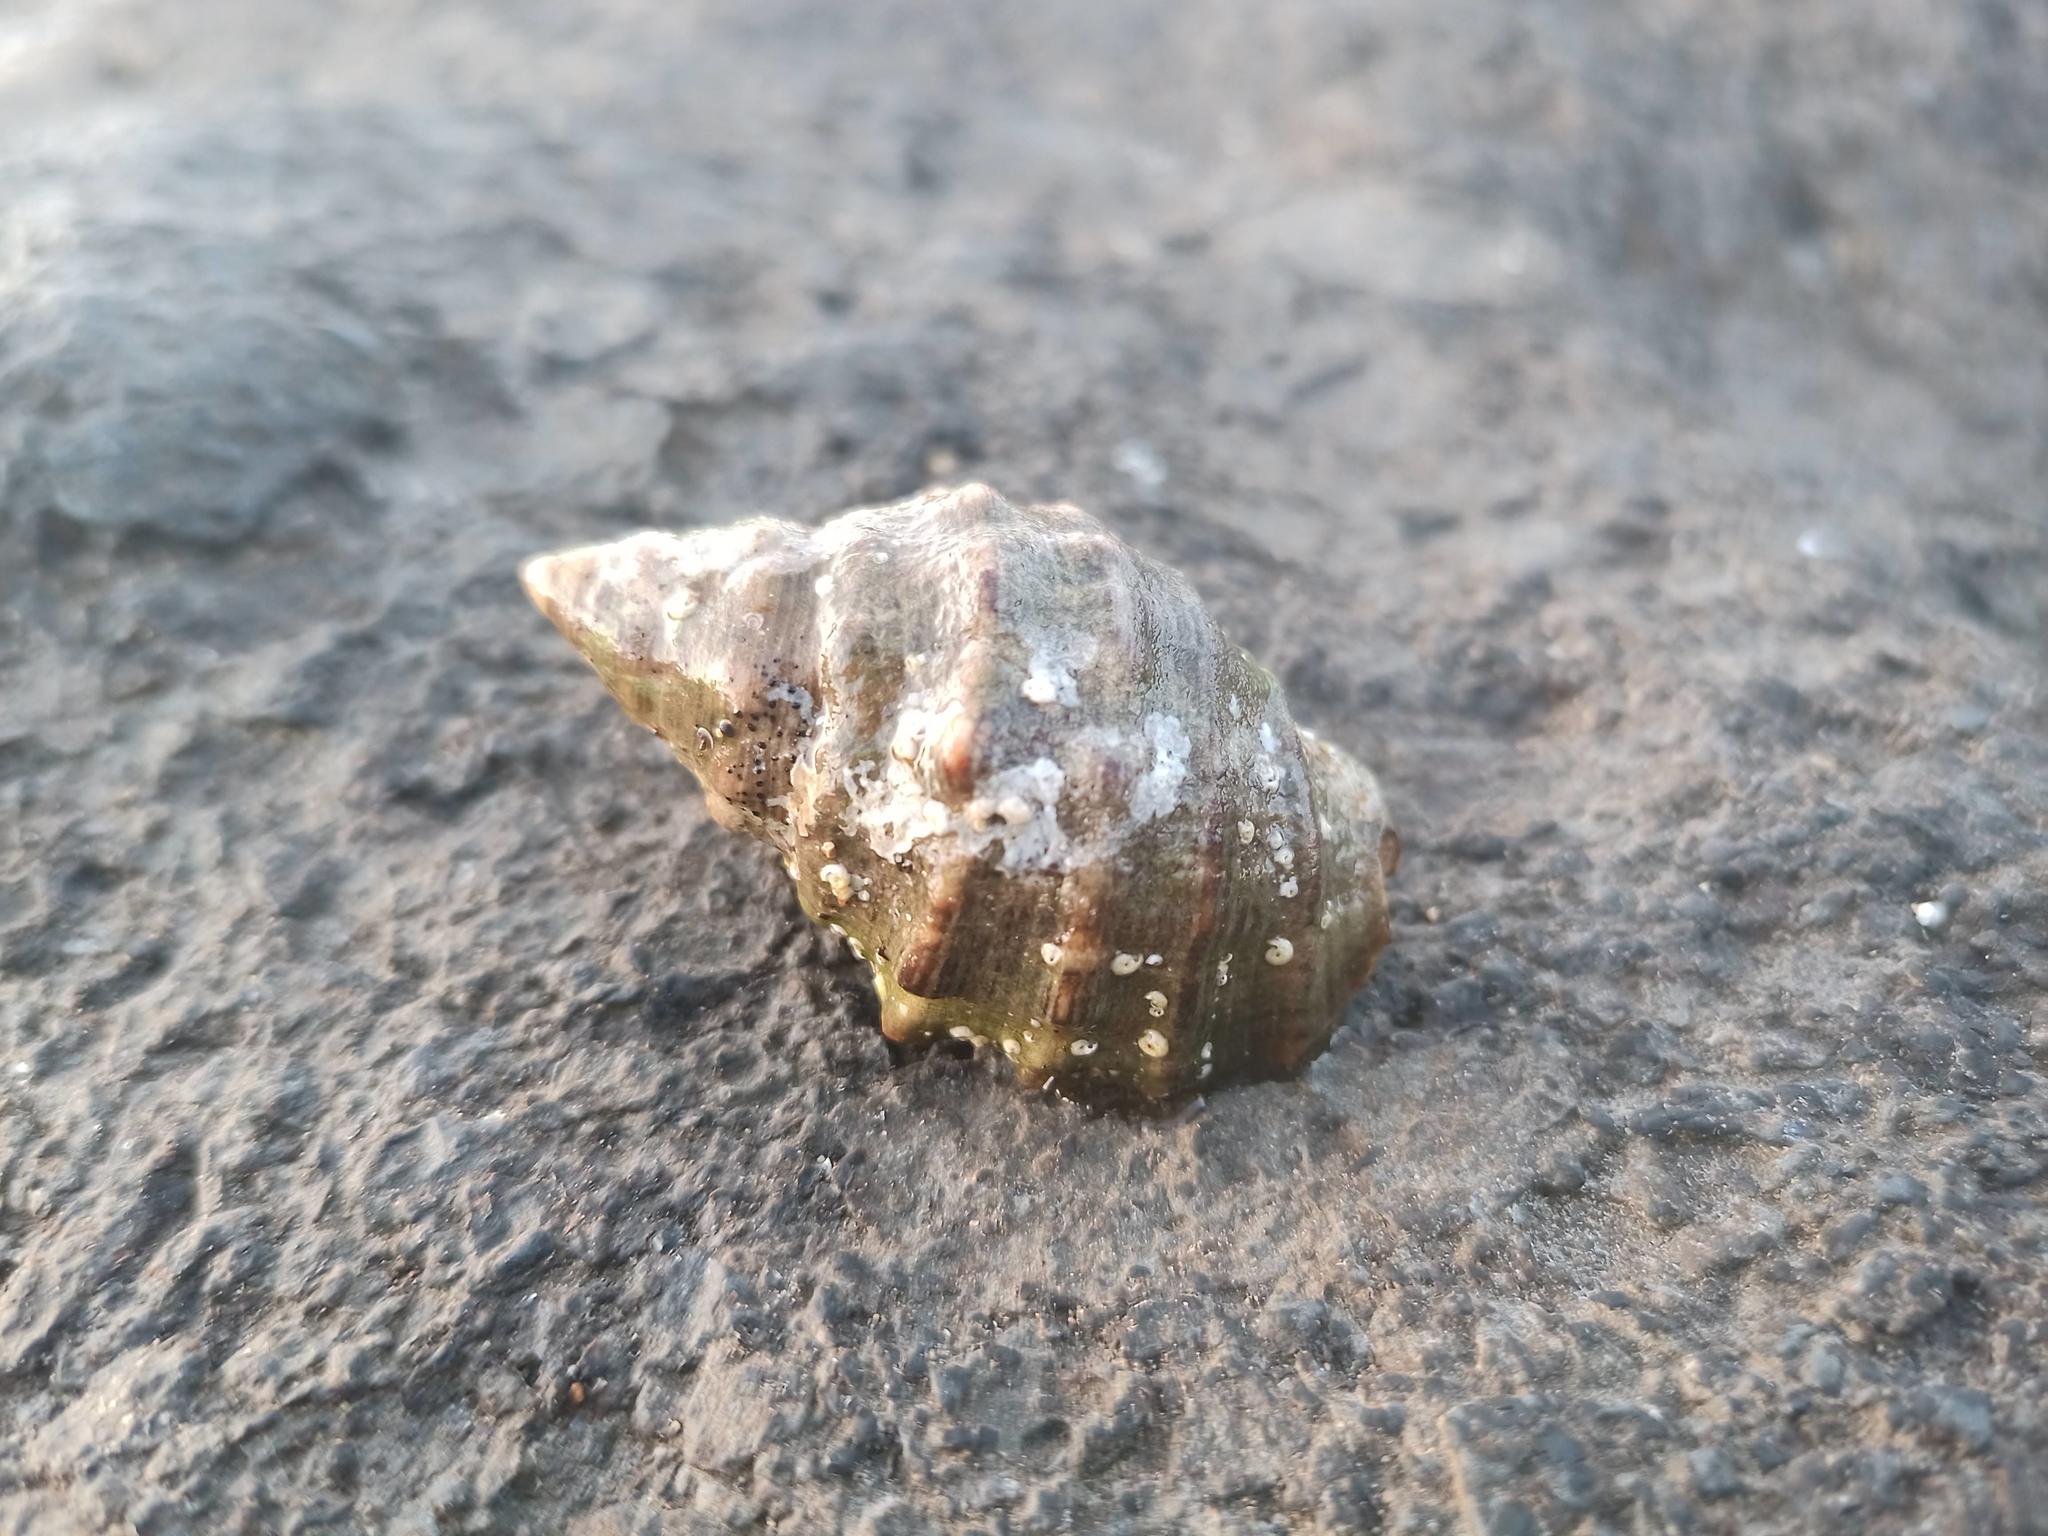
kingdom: Animalia
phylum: Mollusca
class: Gastropoda
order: Neogastropoda
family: Muricidae
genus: Stramonita
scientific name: Stramonita haemastoma
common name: Florida dog winkle
